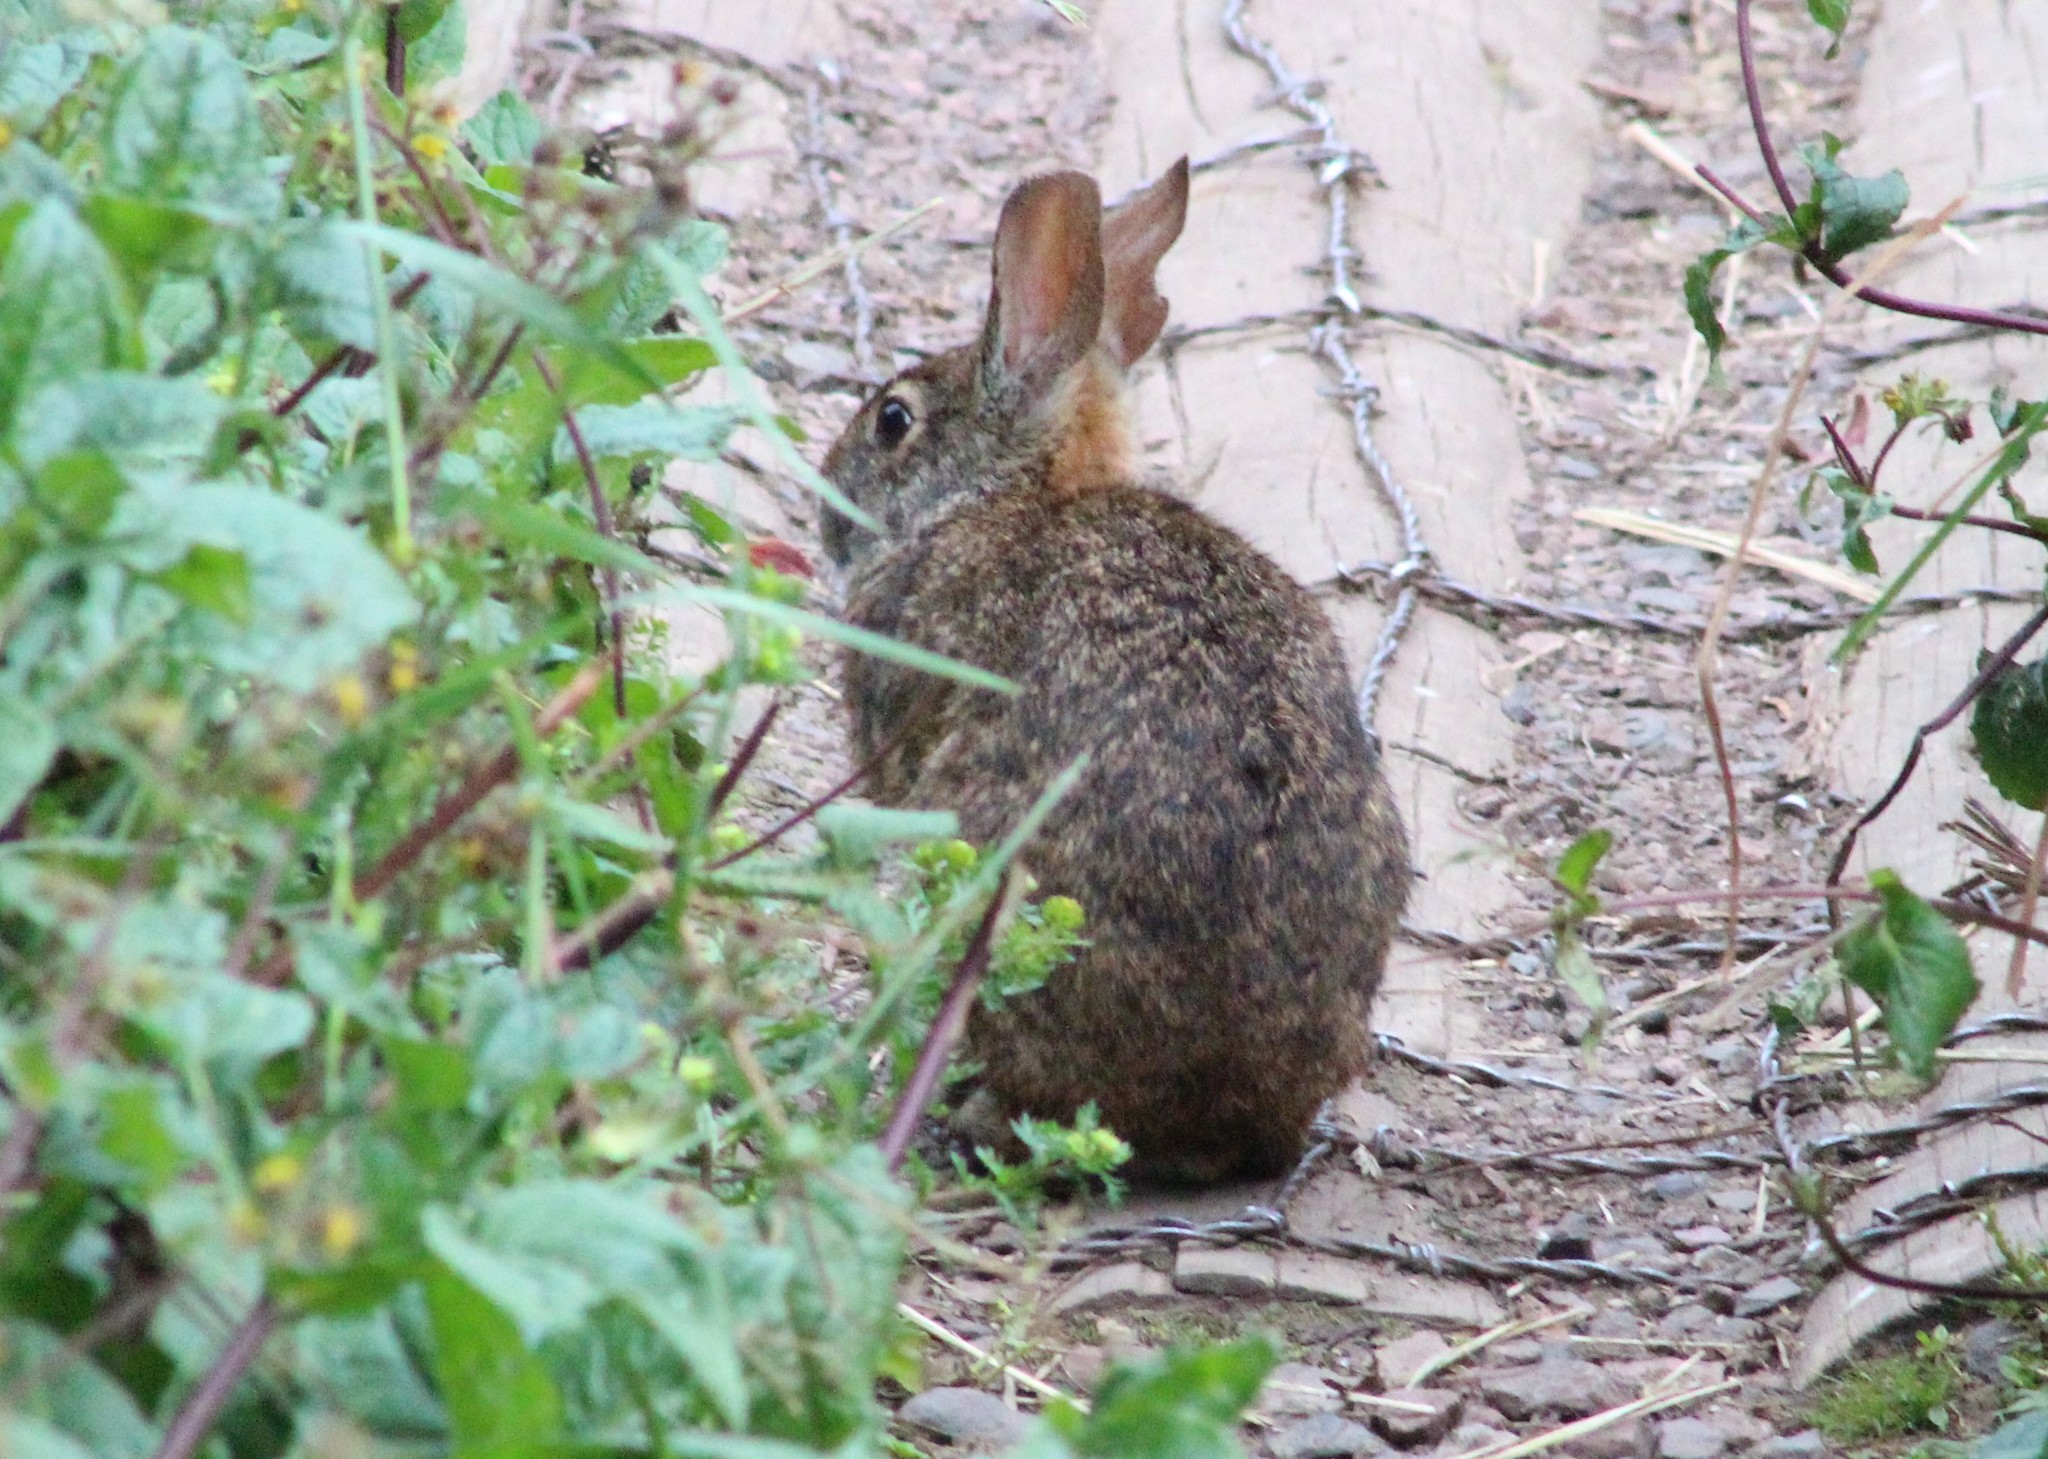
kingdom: Animalia
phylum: Chordata
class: Mammalia
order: Lagomorpha
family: Leporidae
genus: Sylvilagus
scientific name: Sylvilagus andinus
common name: Andean cottontail
